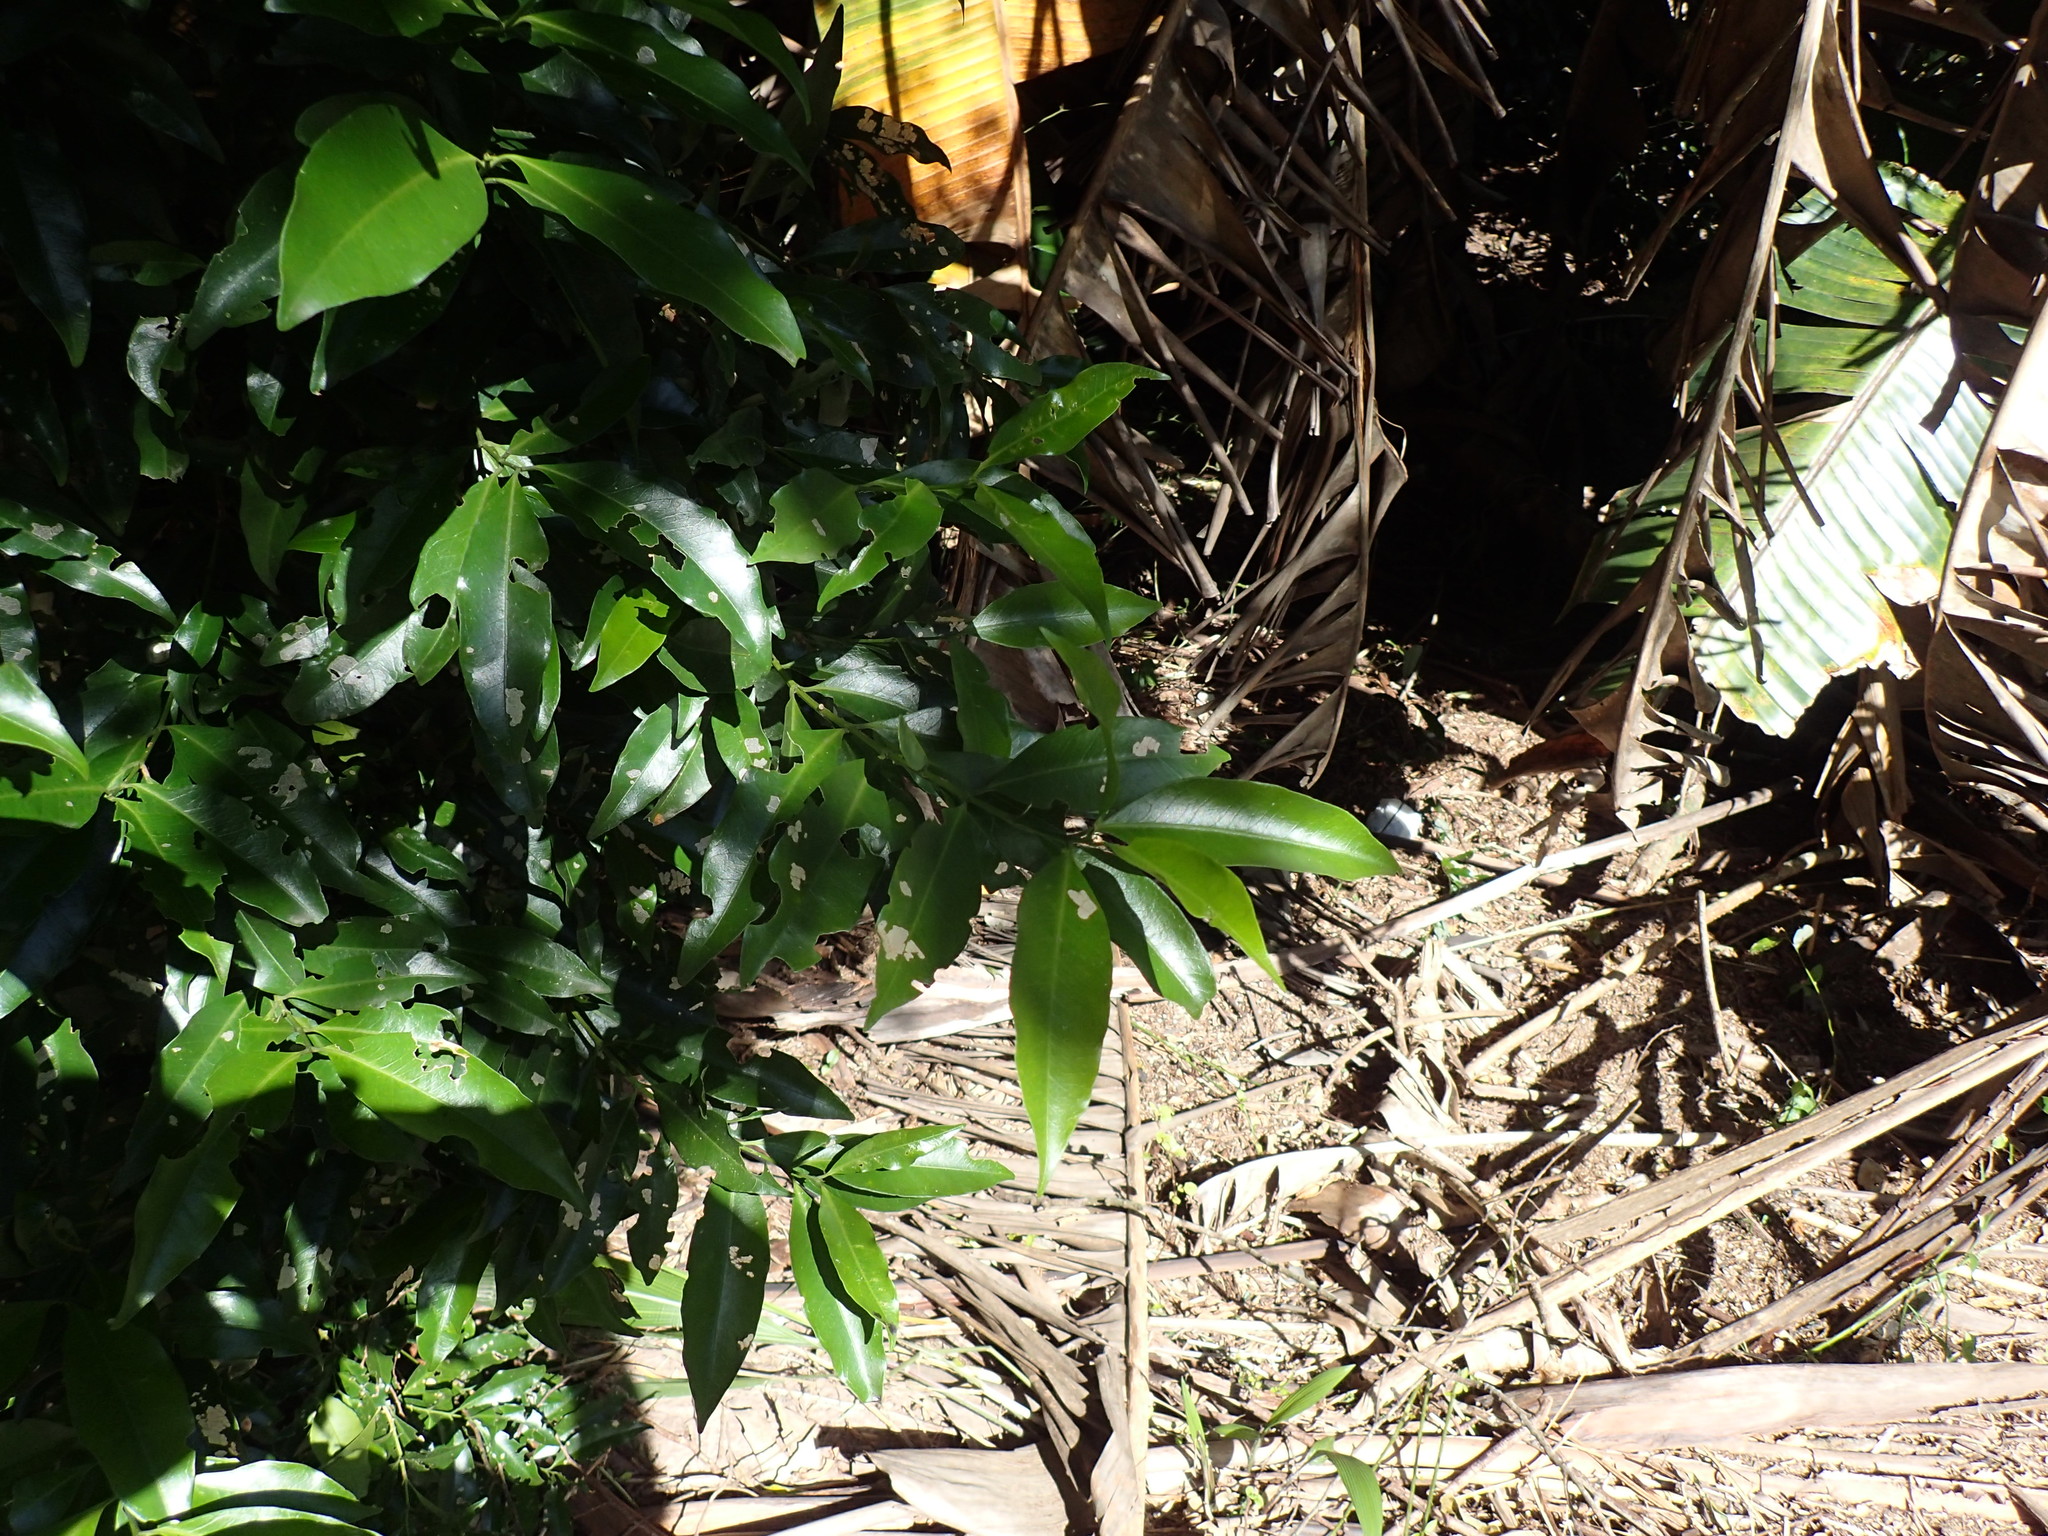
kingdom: Plantae
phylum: Tracheophyta
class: Magnoliopsida
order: Gentianales
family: Rubiaceae
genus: Empogona
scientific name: Empogona lanceolata
